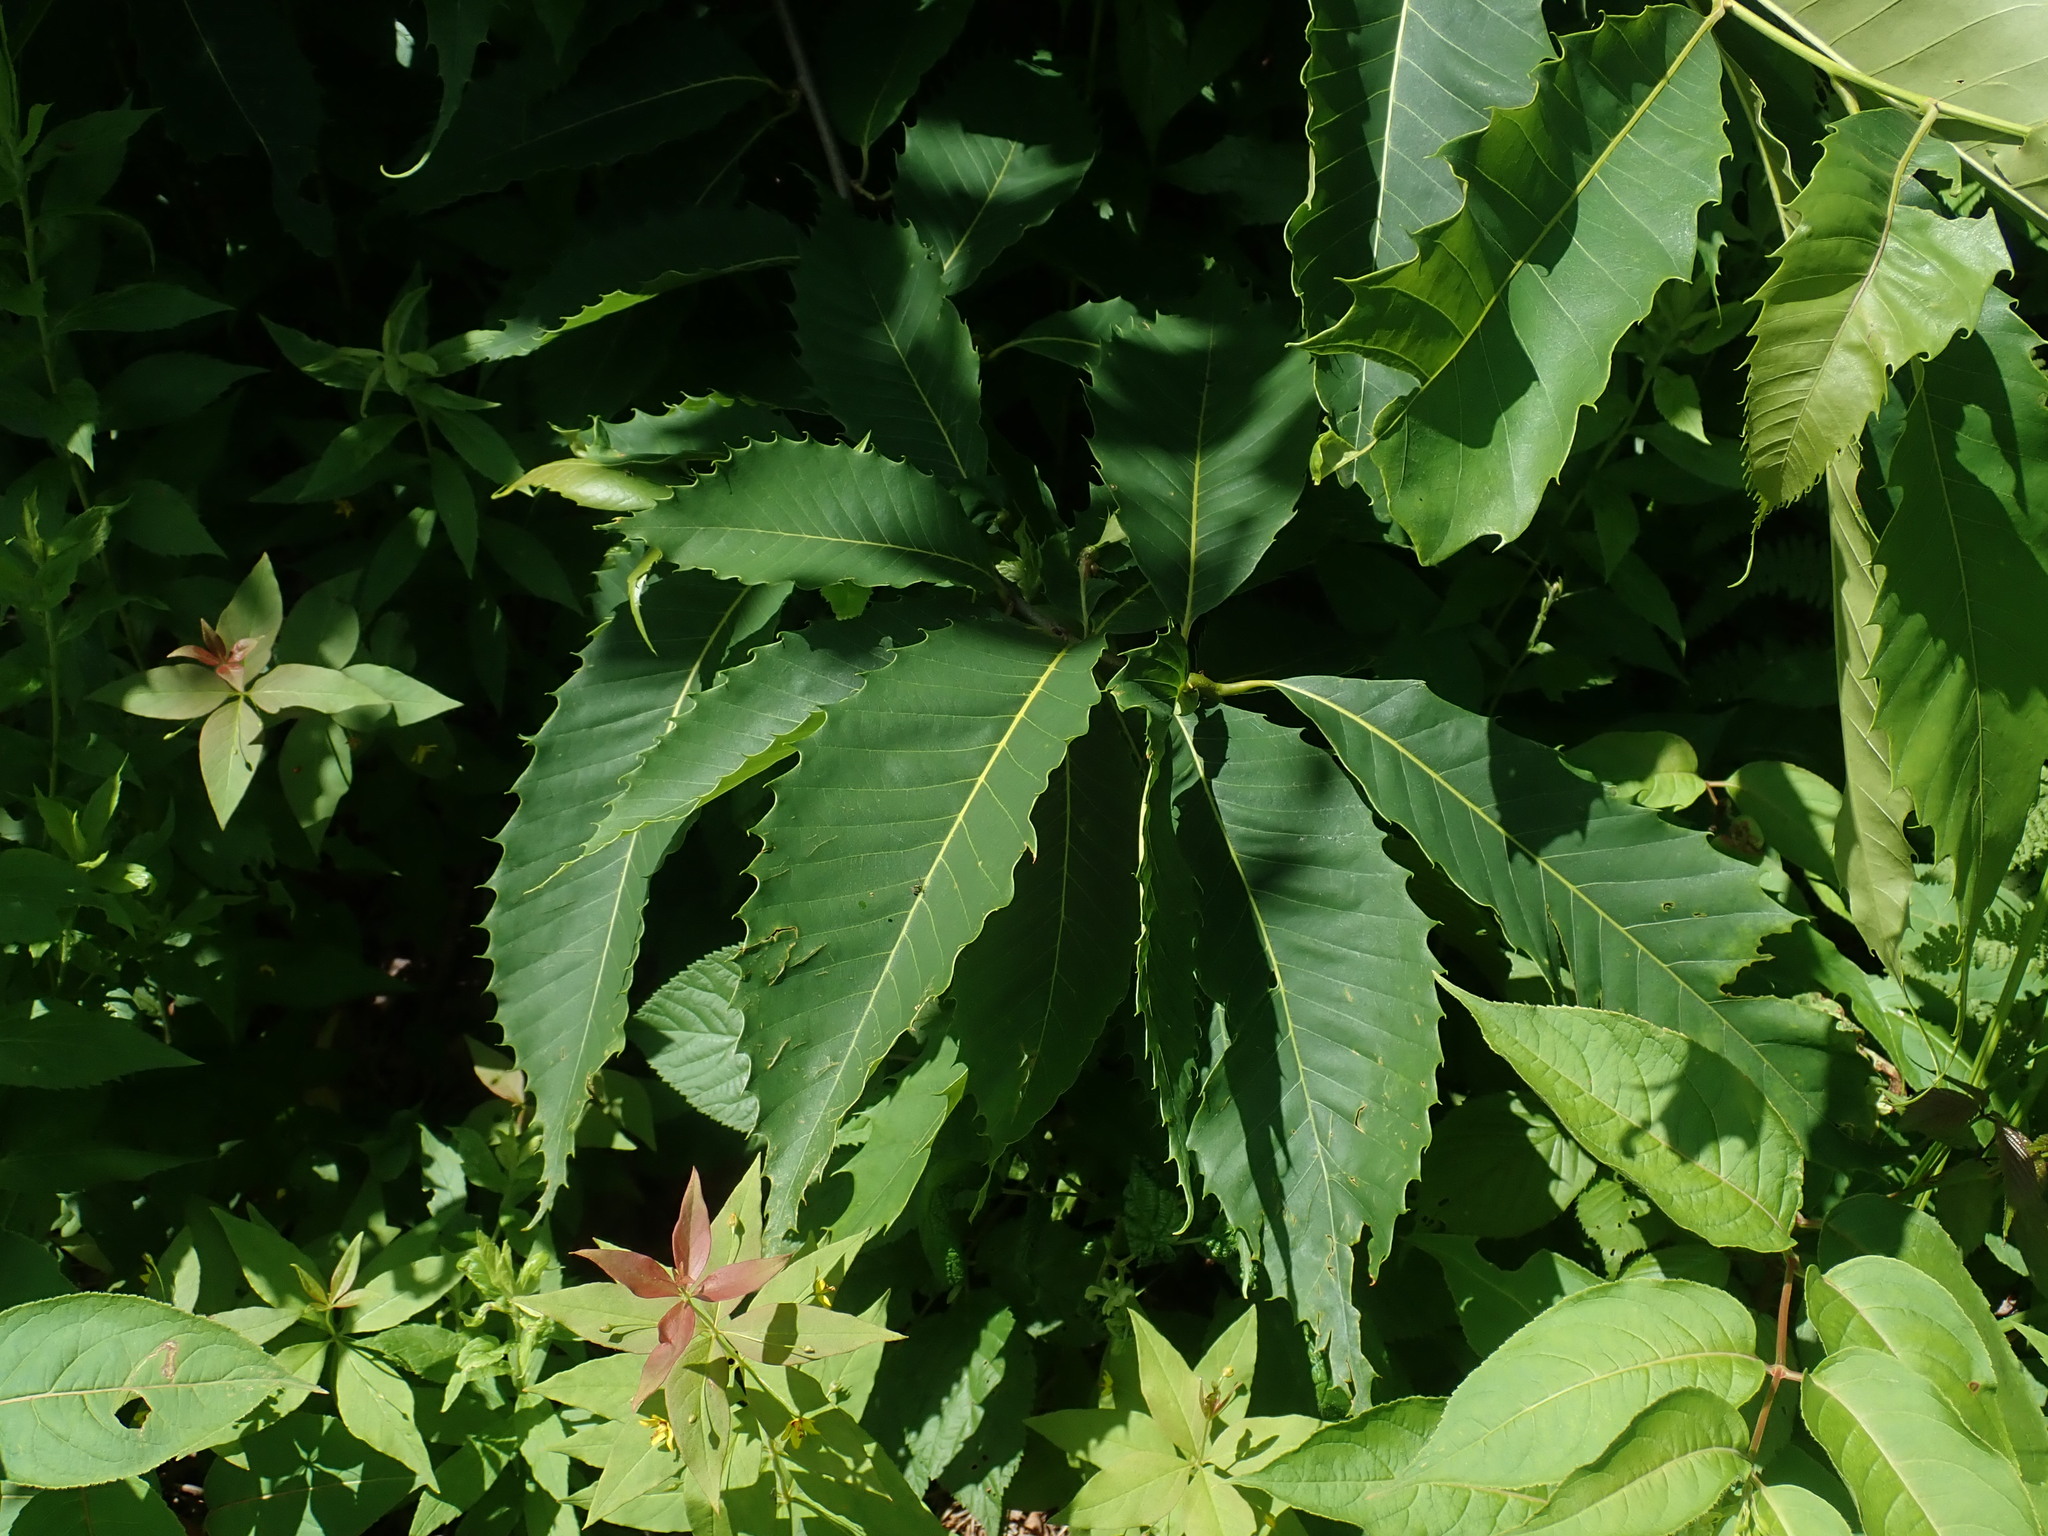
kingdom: Plantae
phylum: Tracheophyta
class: Magnoliopsida
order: Fagales
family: Fagaceae
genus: Castanea
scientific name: Castanea dentata
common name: American chestnut
